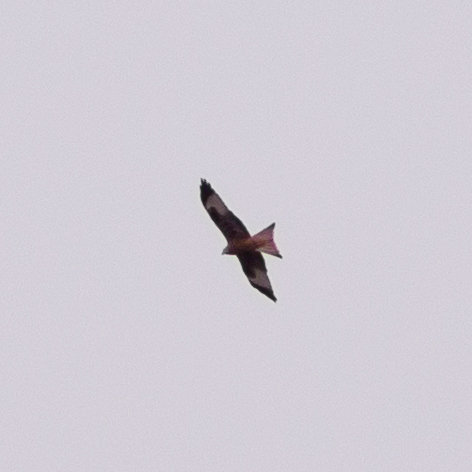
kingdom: Animalia
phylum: Chordata
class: Aves
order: Accipitriformes
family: Accipitridae
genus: Milvus
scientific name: Milvus milvus
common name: Red kite
